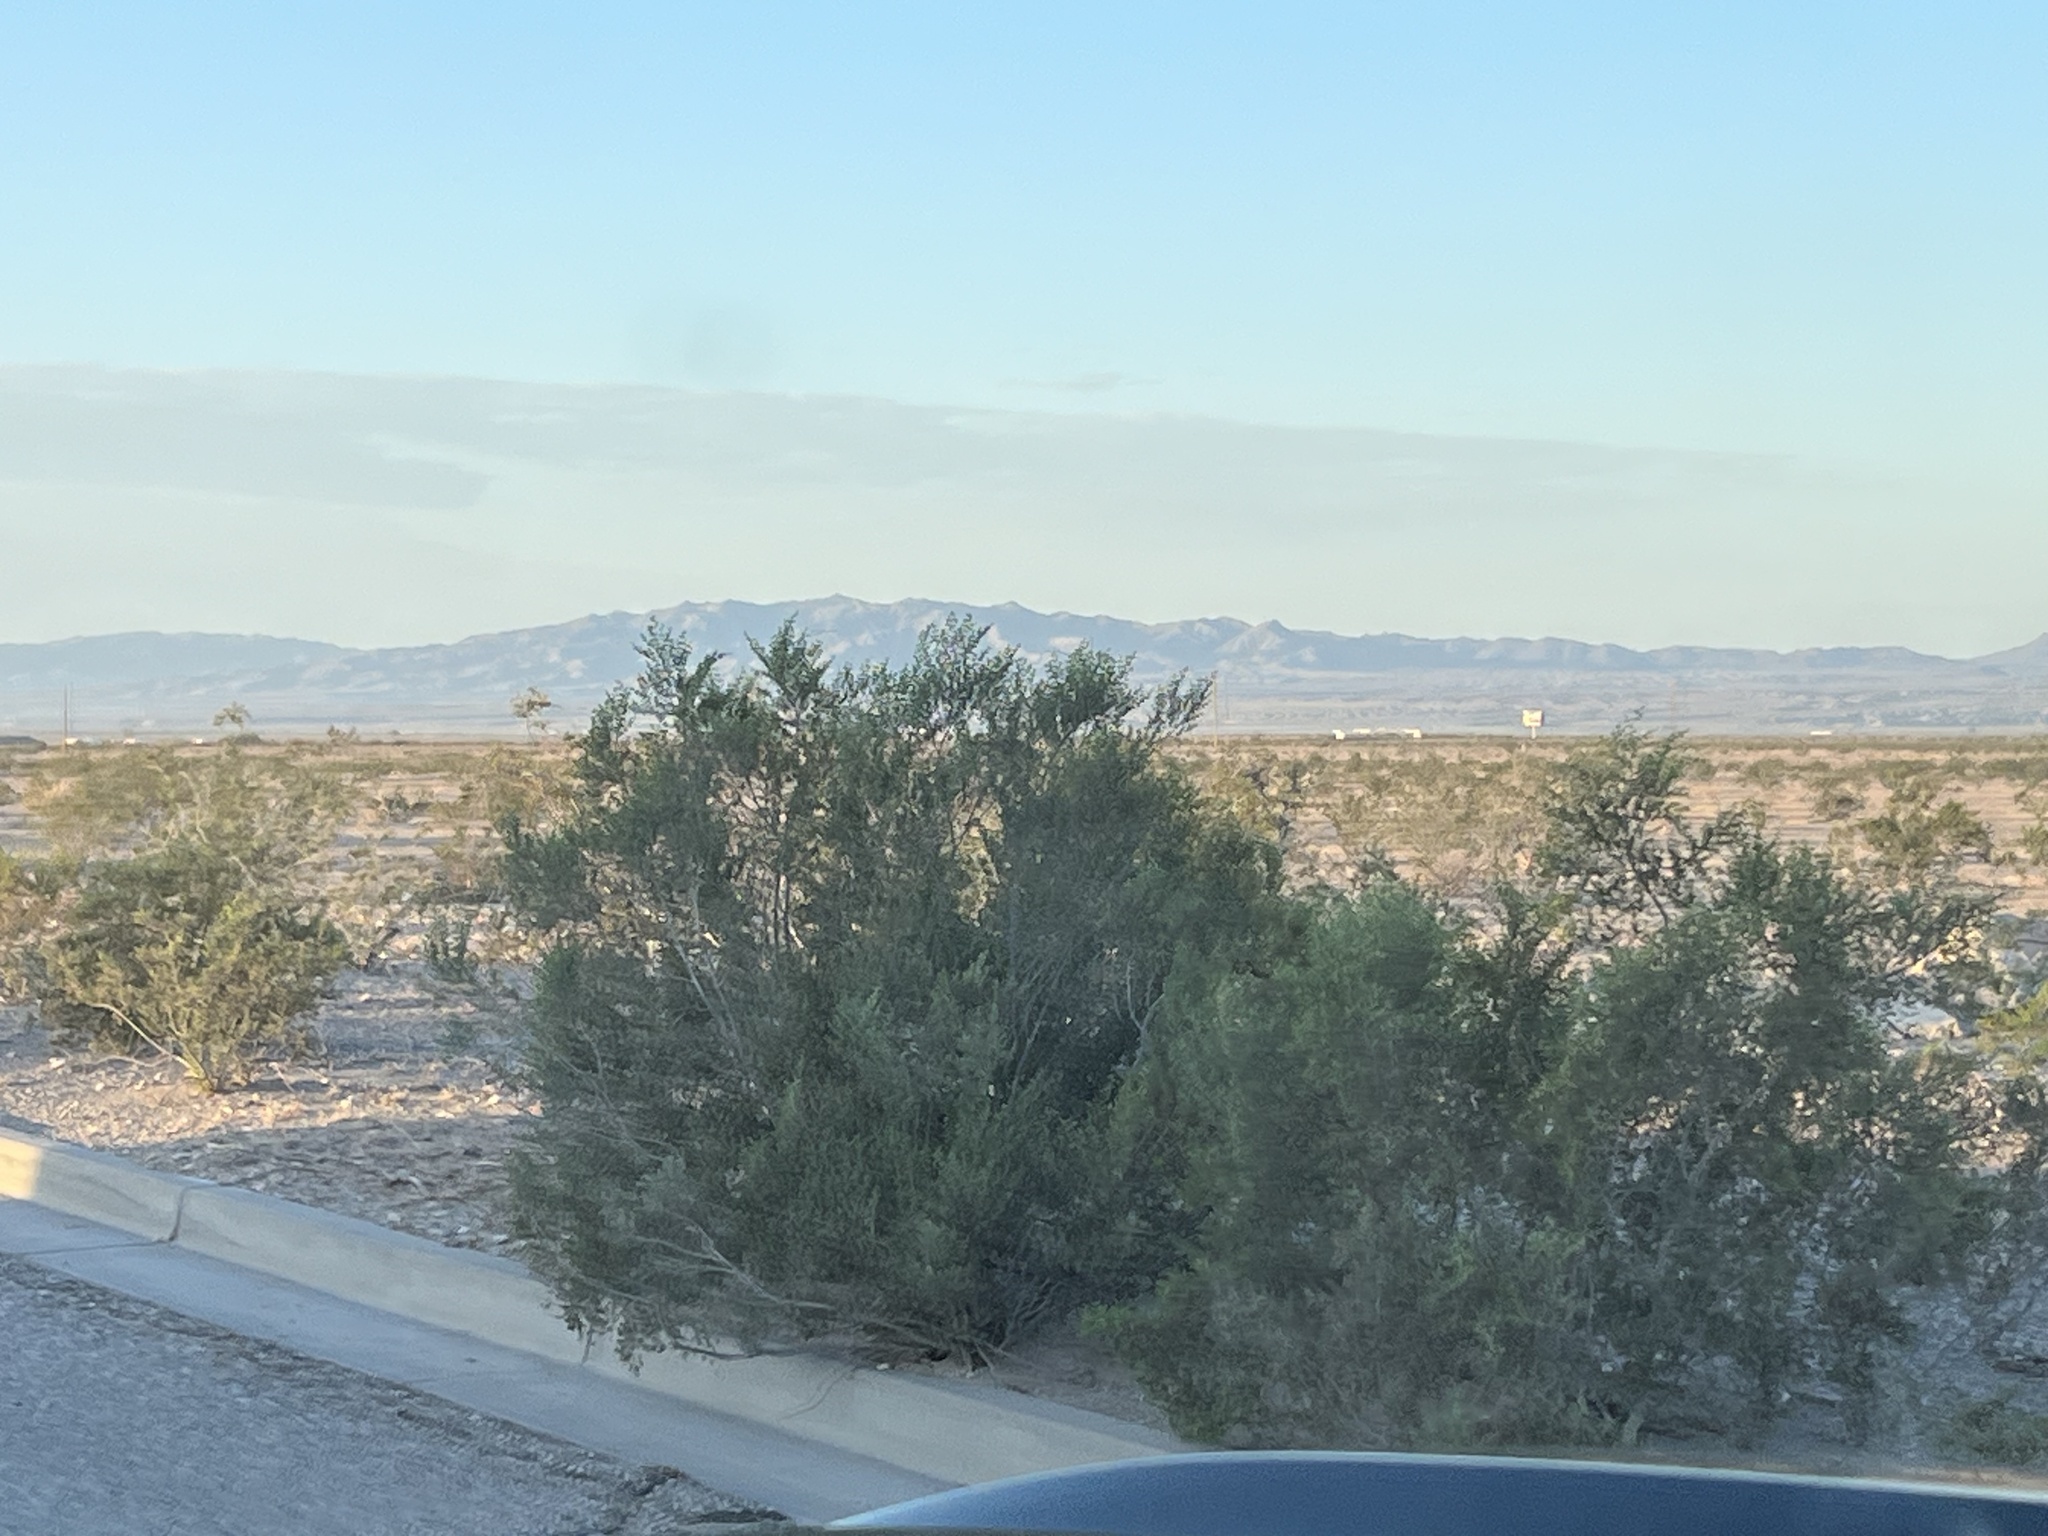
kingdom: Plantae
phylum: Tracheophyta
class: Magnoliopsida
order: Zygophyllales
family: Zygophyllaceae
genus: Larrea
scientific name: Larrea tridentata
